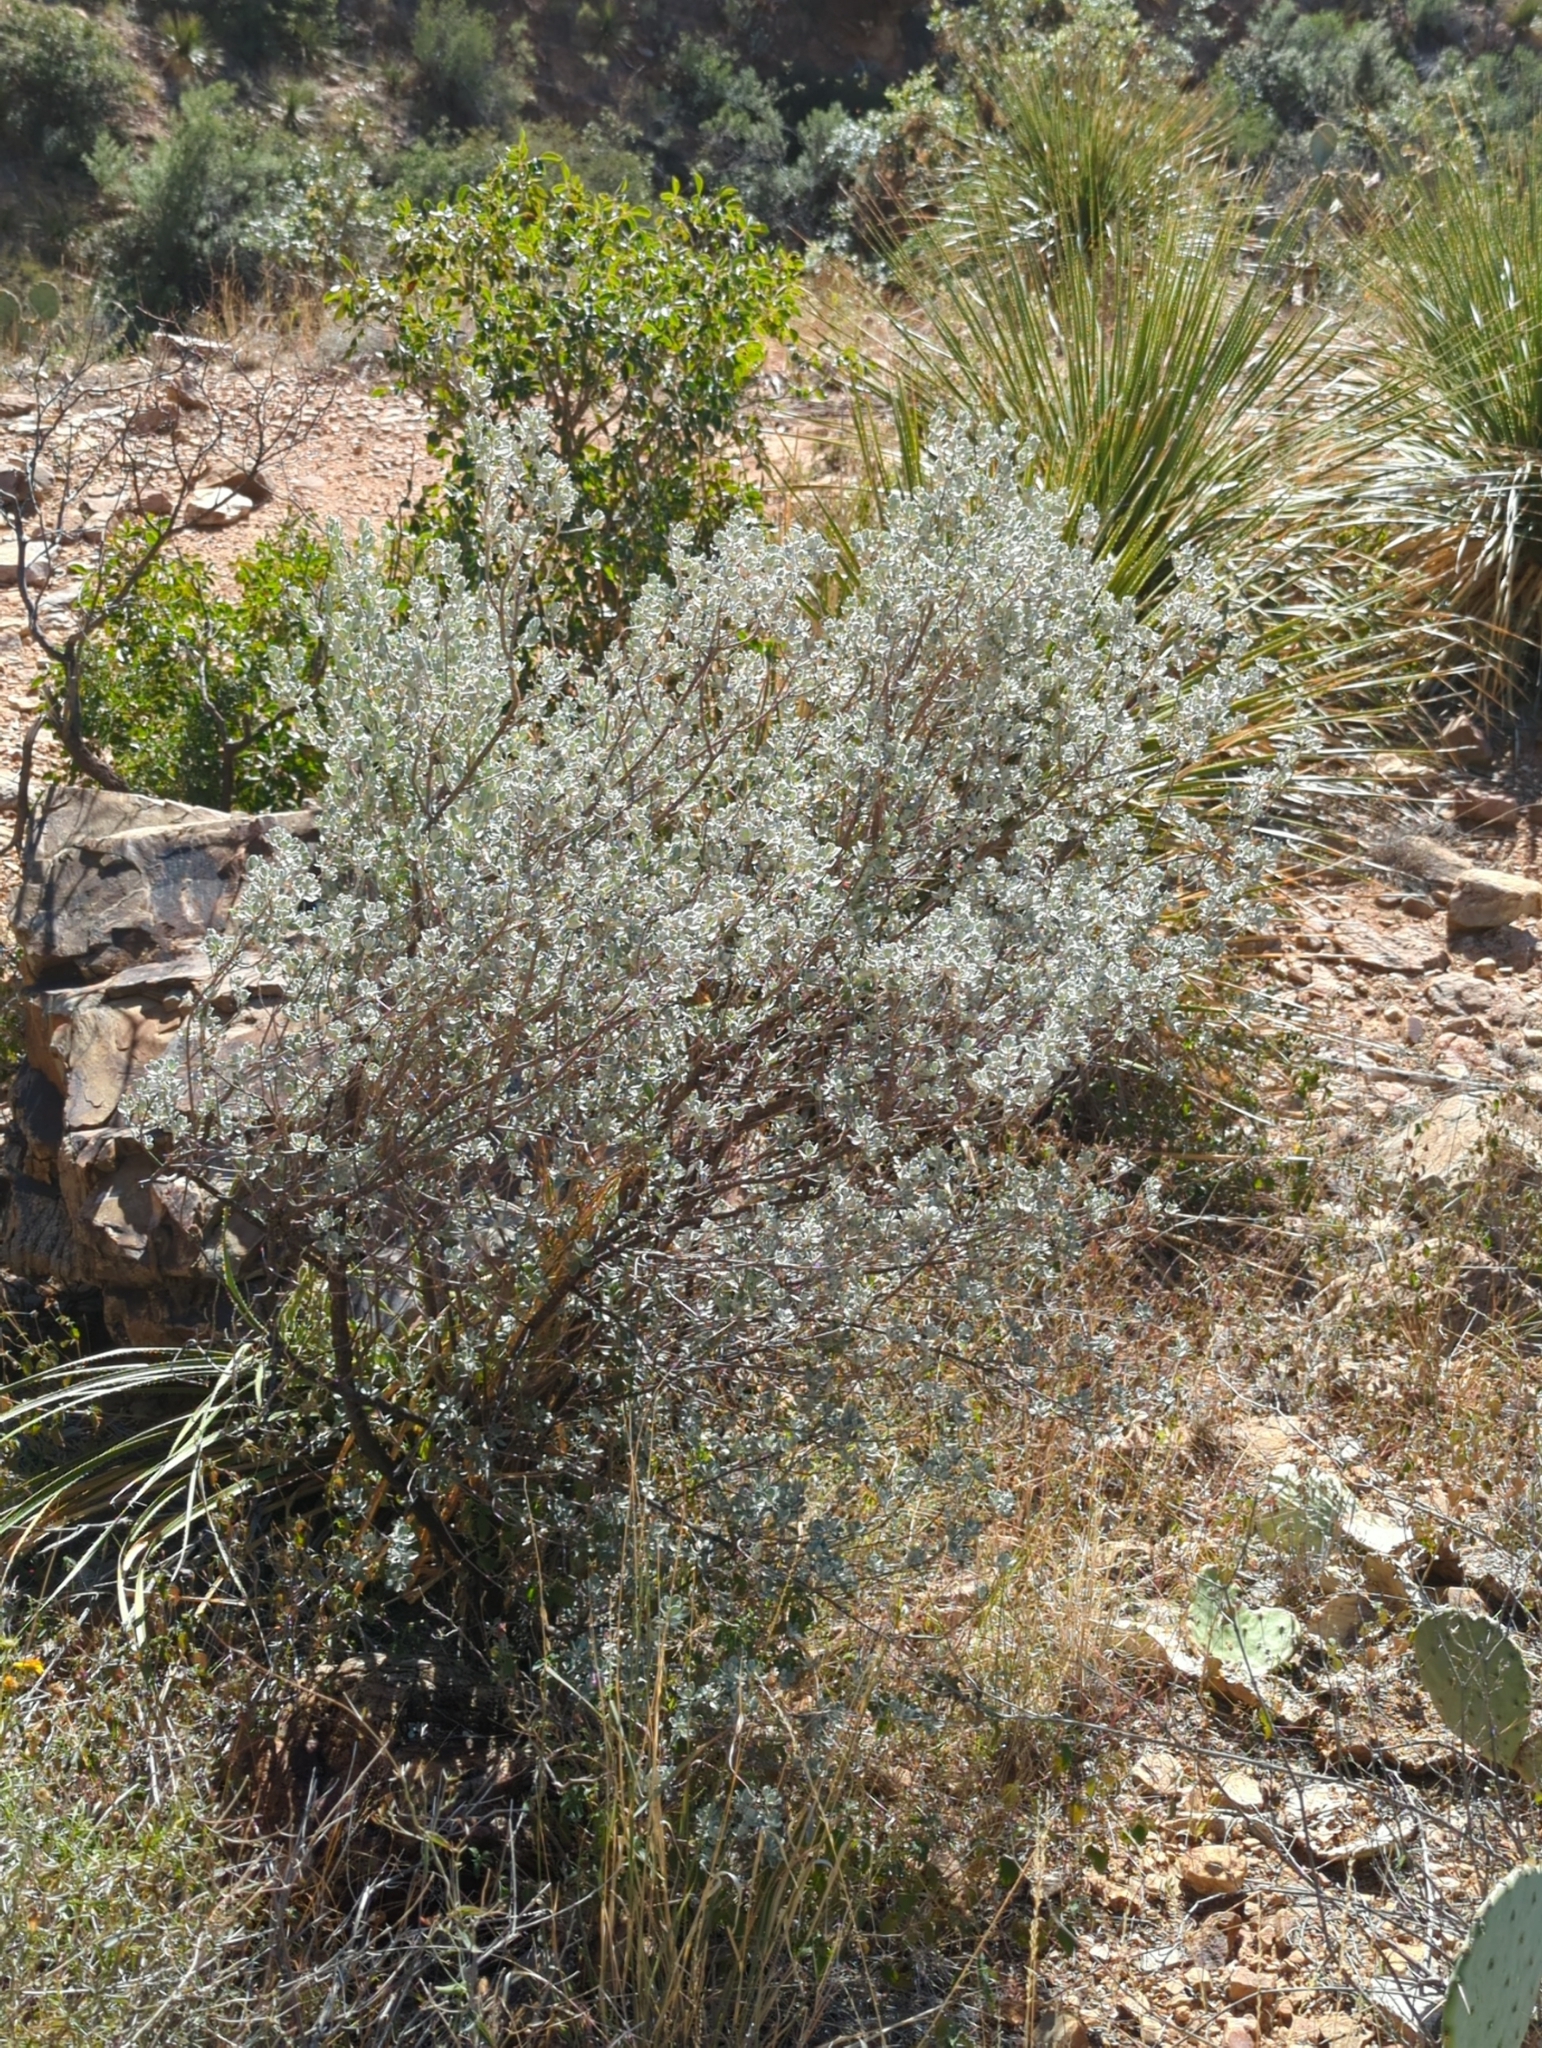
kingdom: Plantae
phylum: Tracheophyta
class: Magnoliopsida
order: Lamiales
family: Scrophulariaceae
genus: Leucophyllum
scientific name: Leucophyllum frutescens
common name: Texas silverleaf
